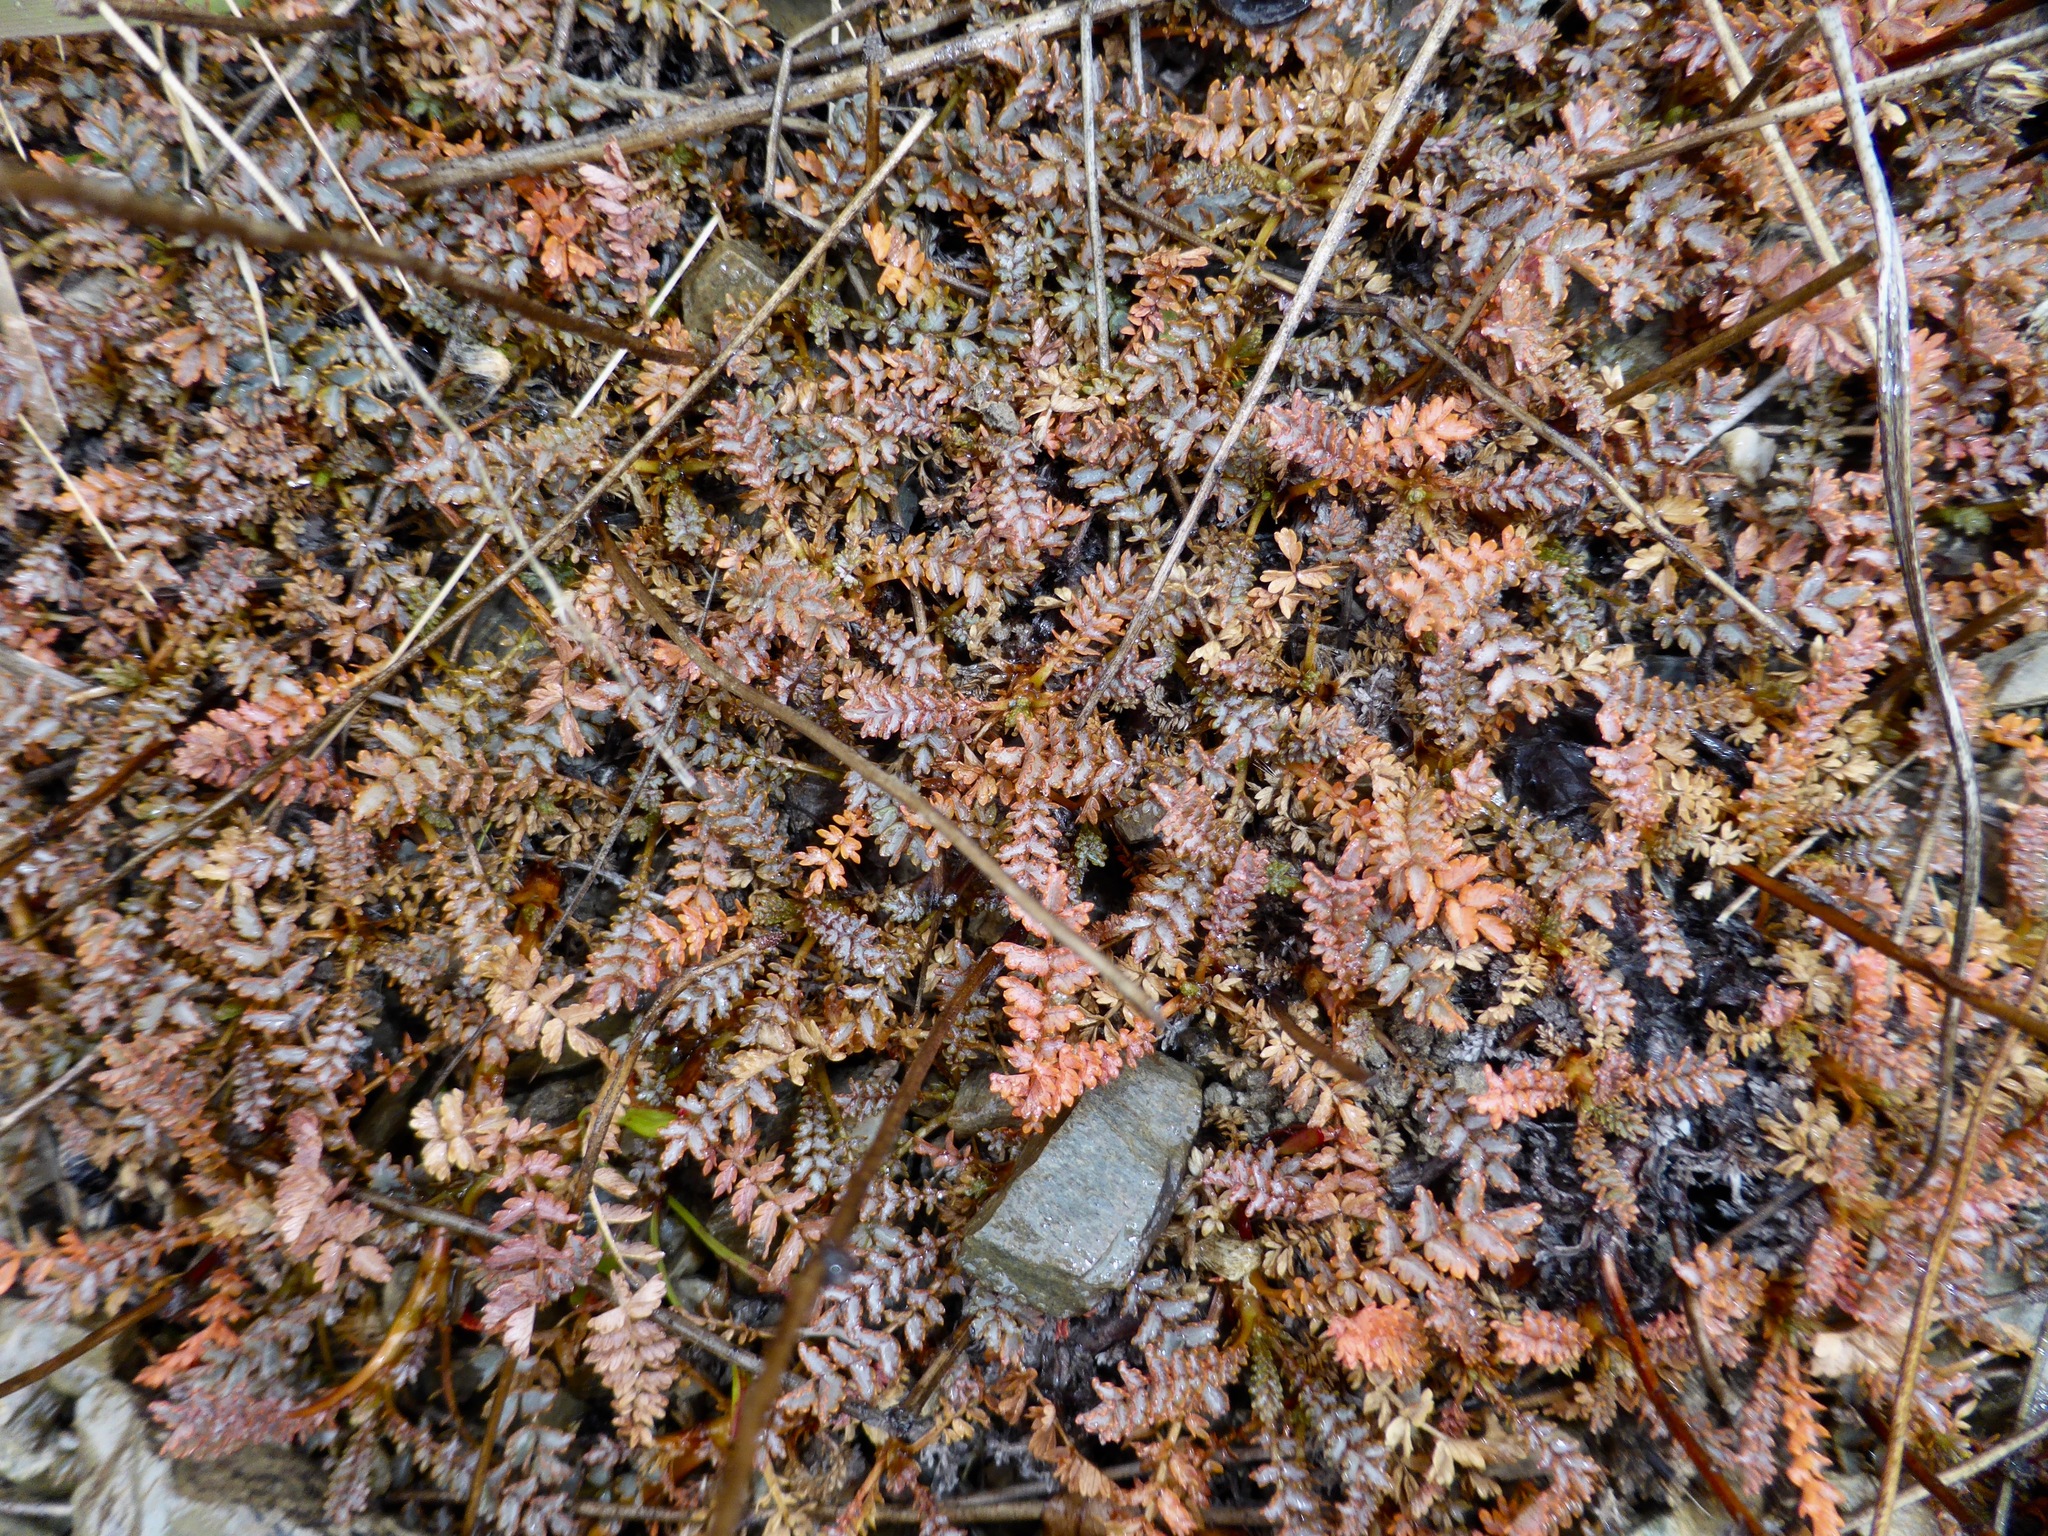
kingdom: Plantae
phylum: Tracheophyta
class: Magnoliopsida
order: Rosales
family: Rosaceae
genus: Acaena
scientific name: Acaena saccaticupula
